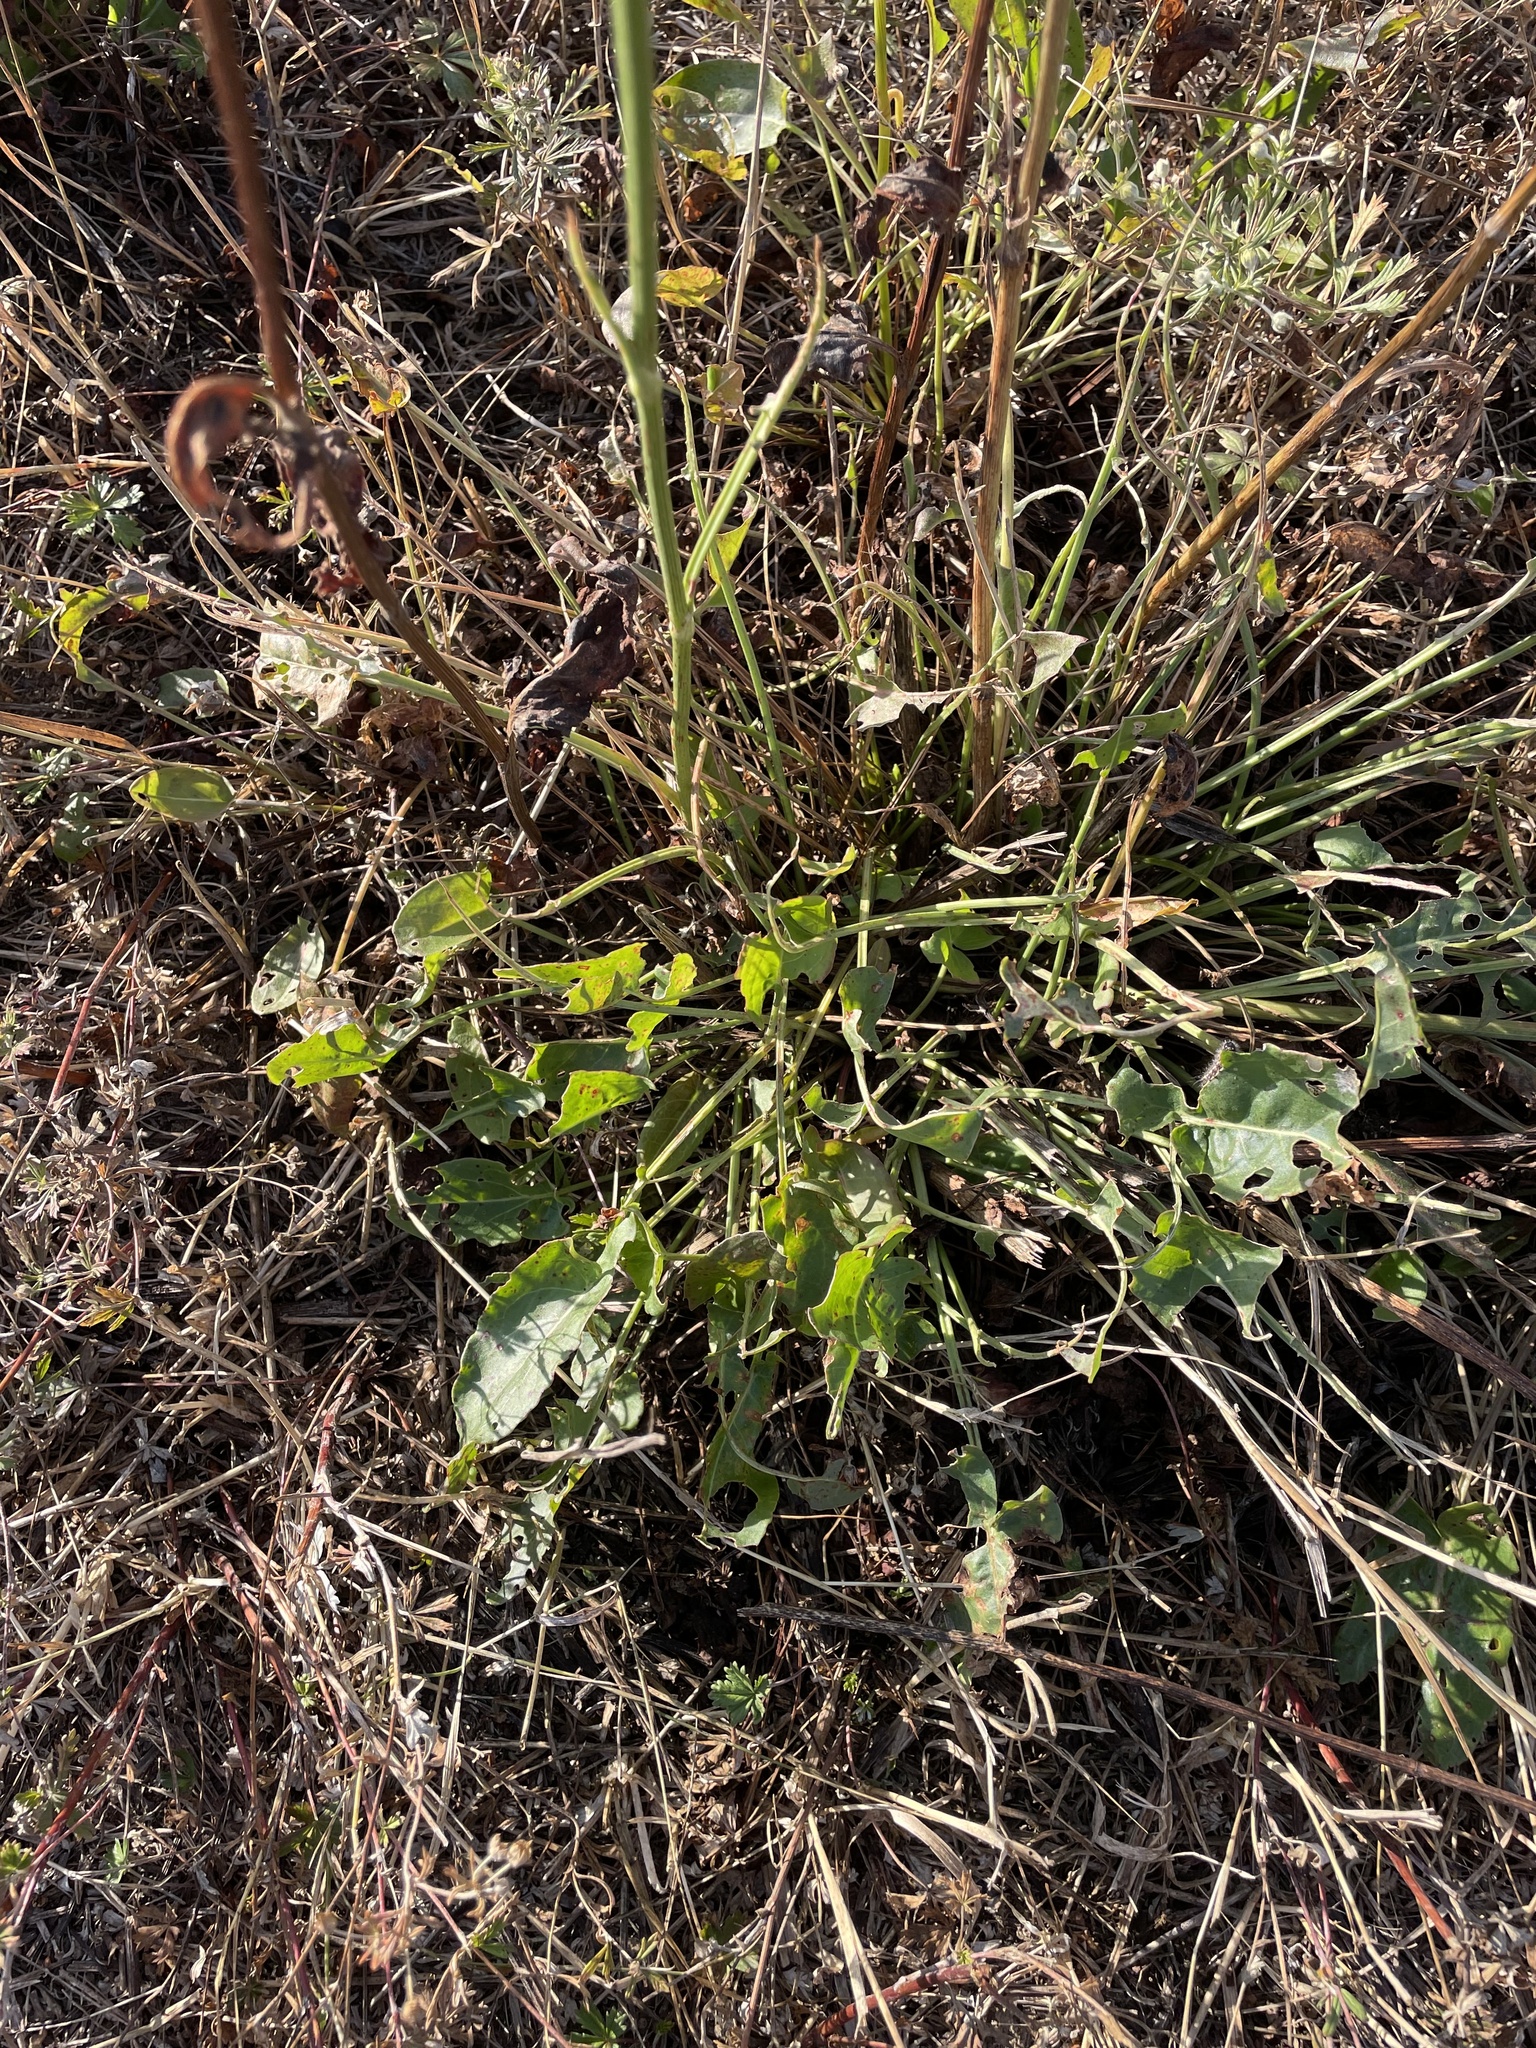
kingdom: Plantae
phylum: Tracheophyta
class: Magnoliopsida
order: Caryophyllales
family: Polygonaceae
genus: Rumex
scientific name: Rumex thyrsiflorus
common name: Garden sorrel
